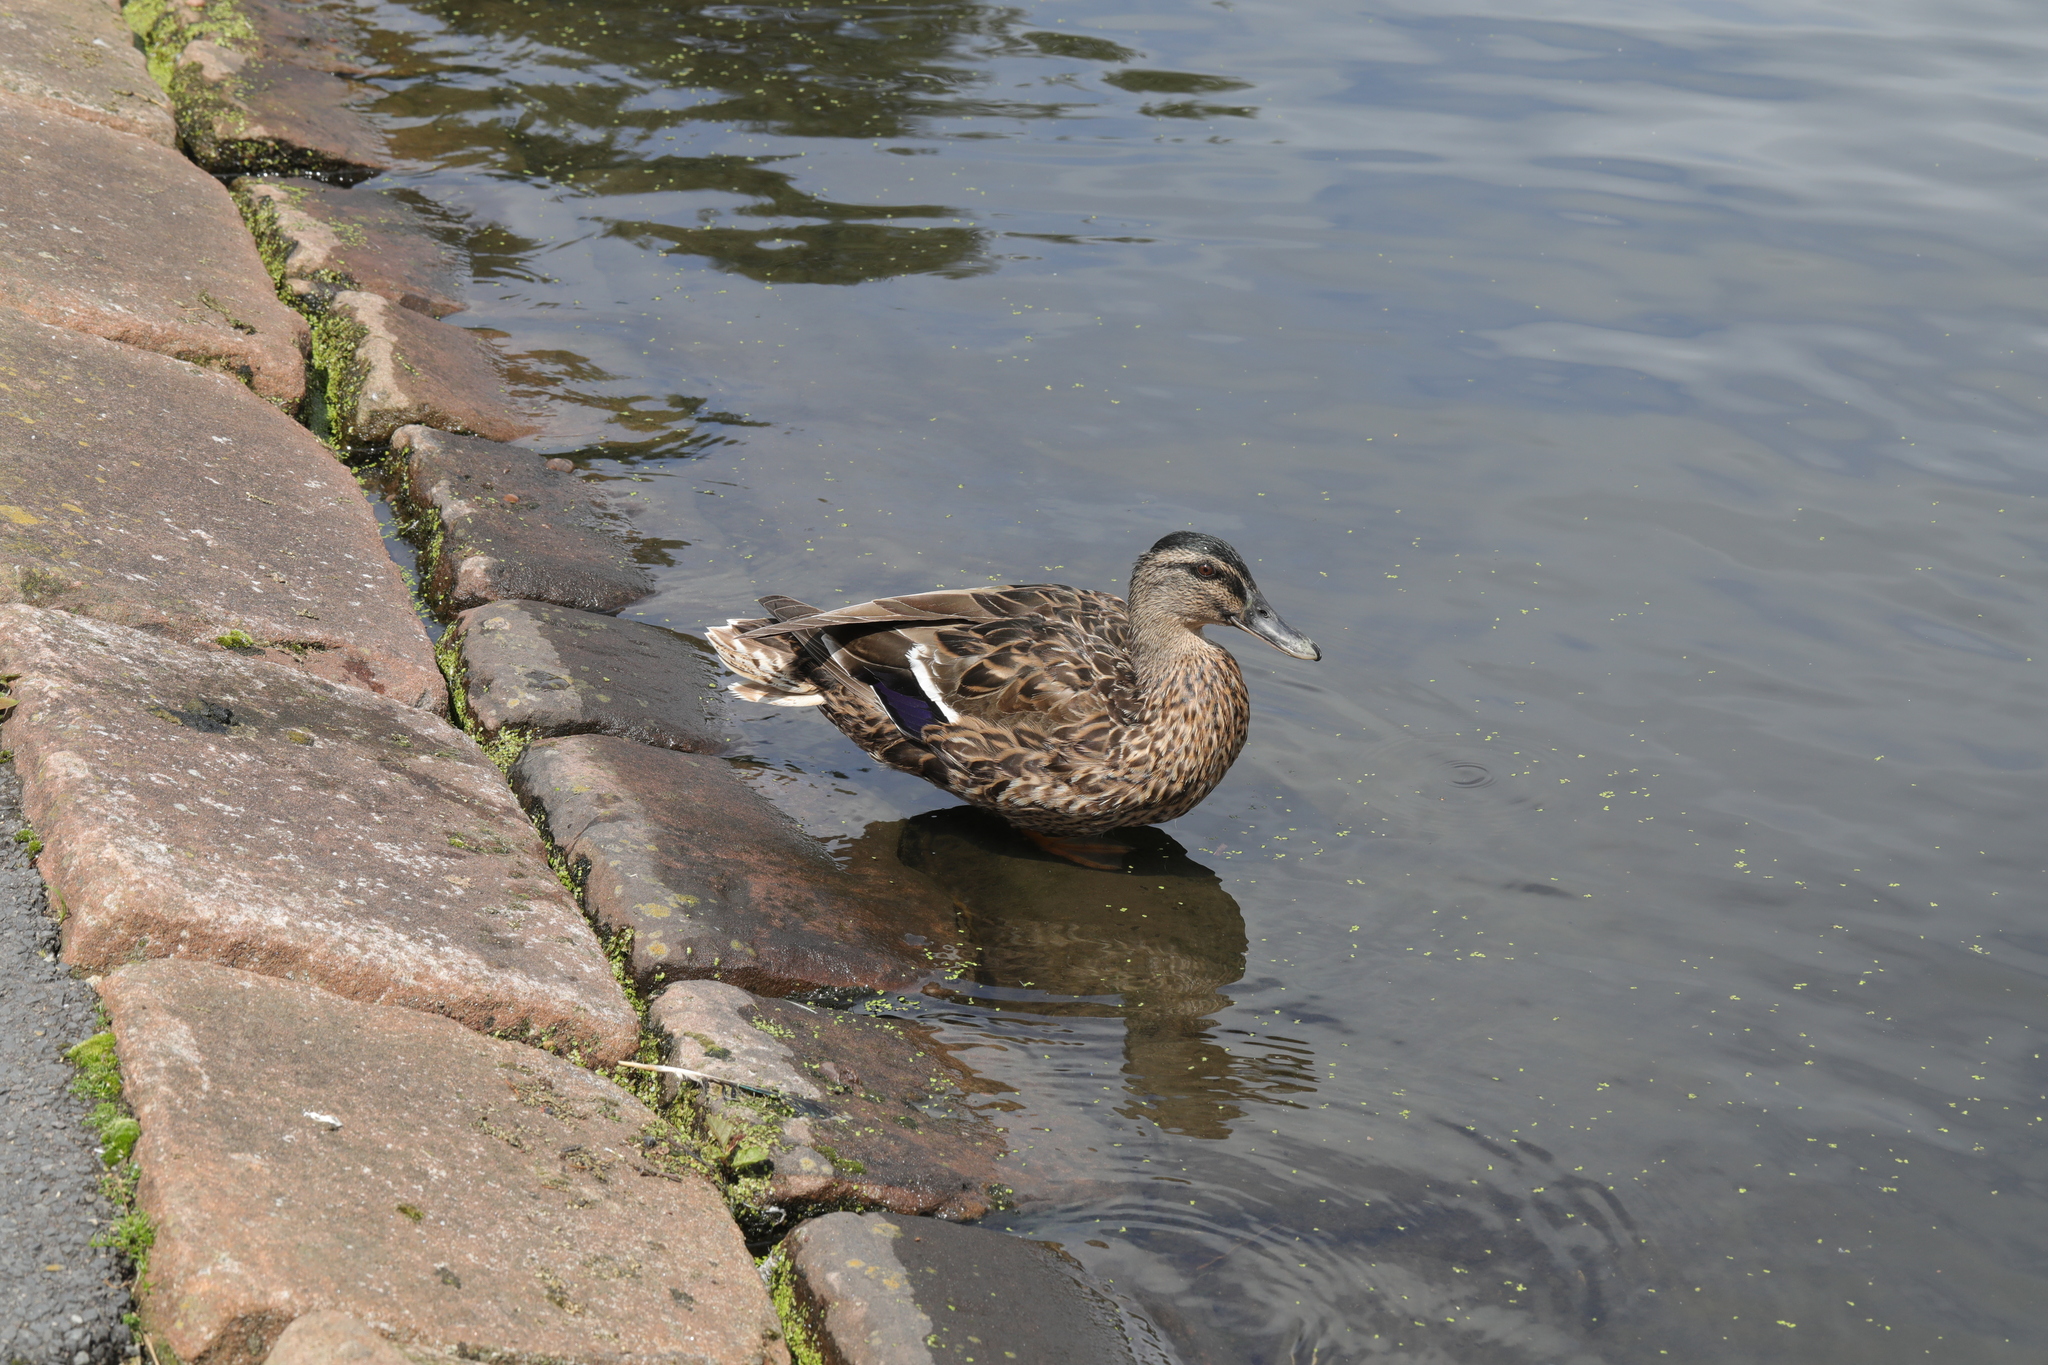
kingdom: Animalia
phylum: Chordata
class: Aves
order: Anseriformes
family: Anatidae
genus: Anas
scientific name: Anas platyrhynchos
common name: Mallard
